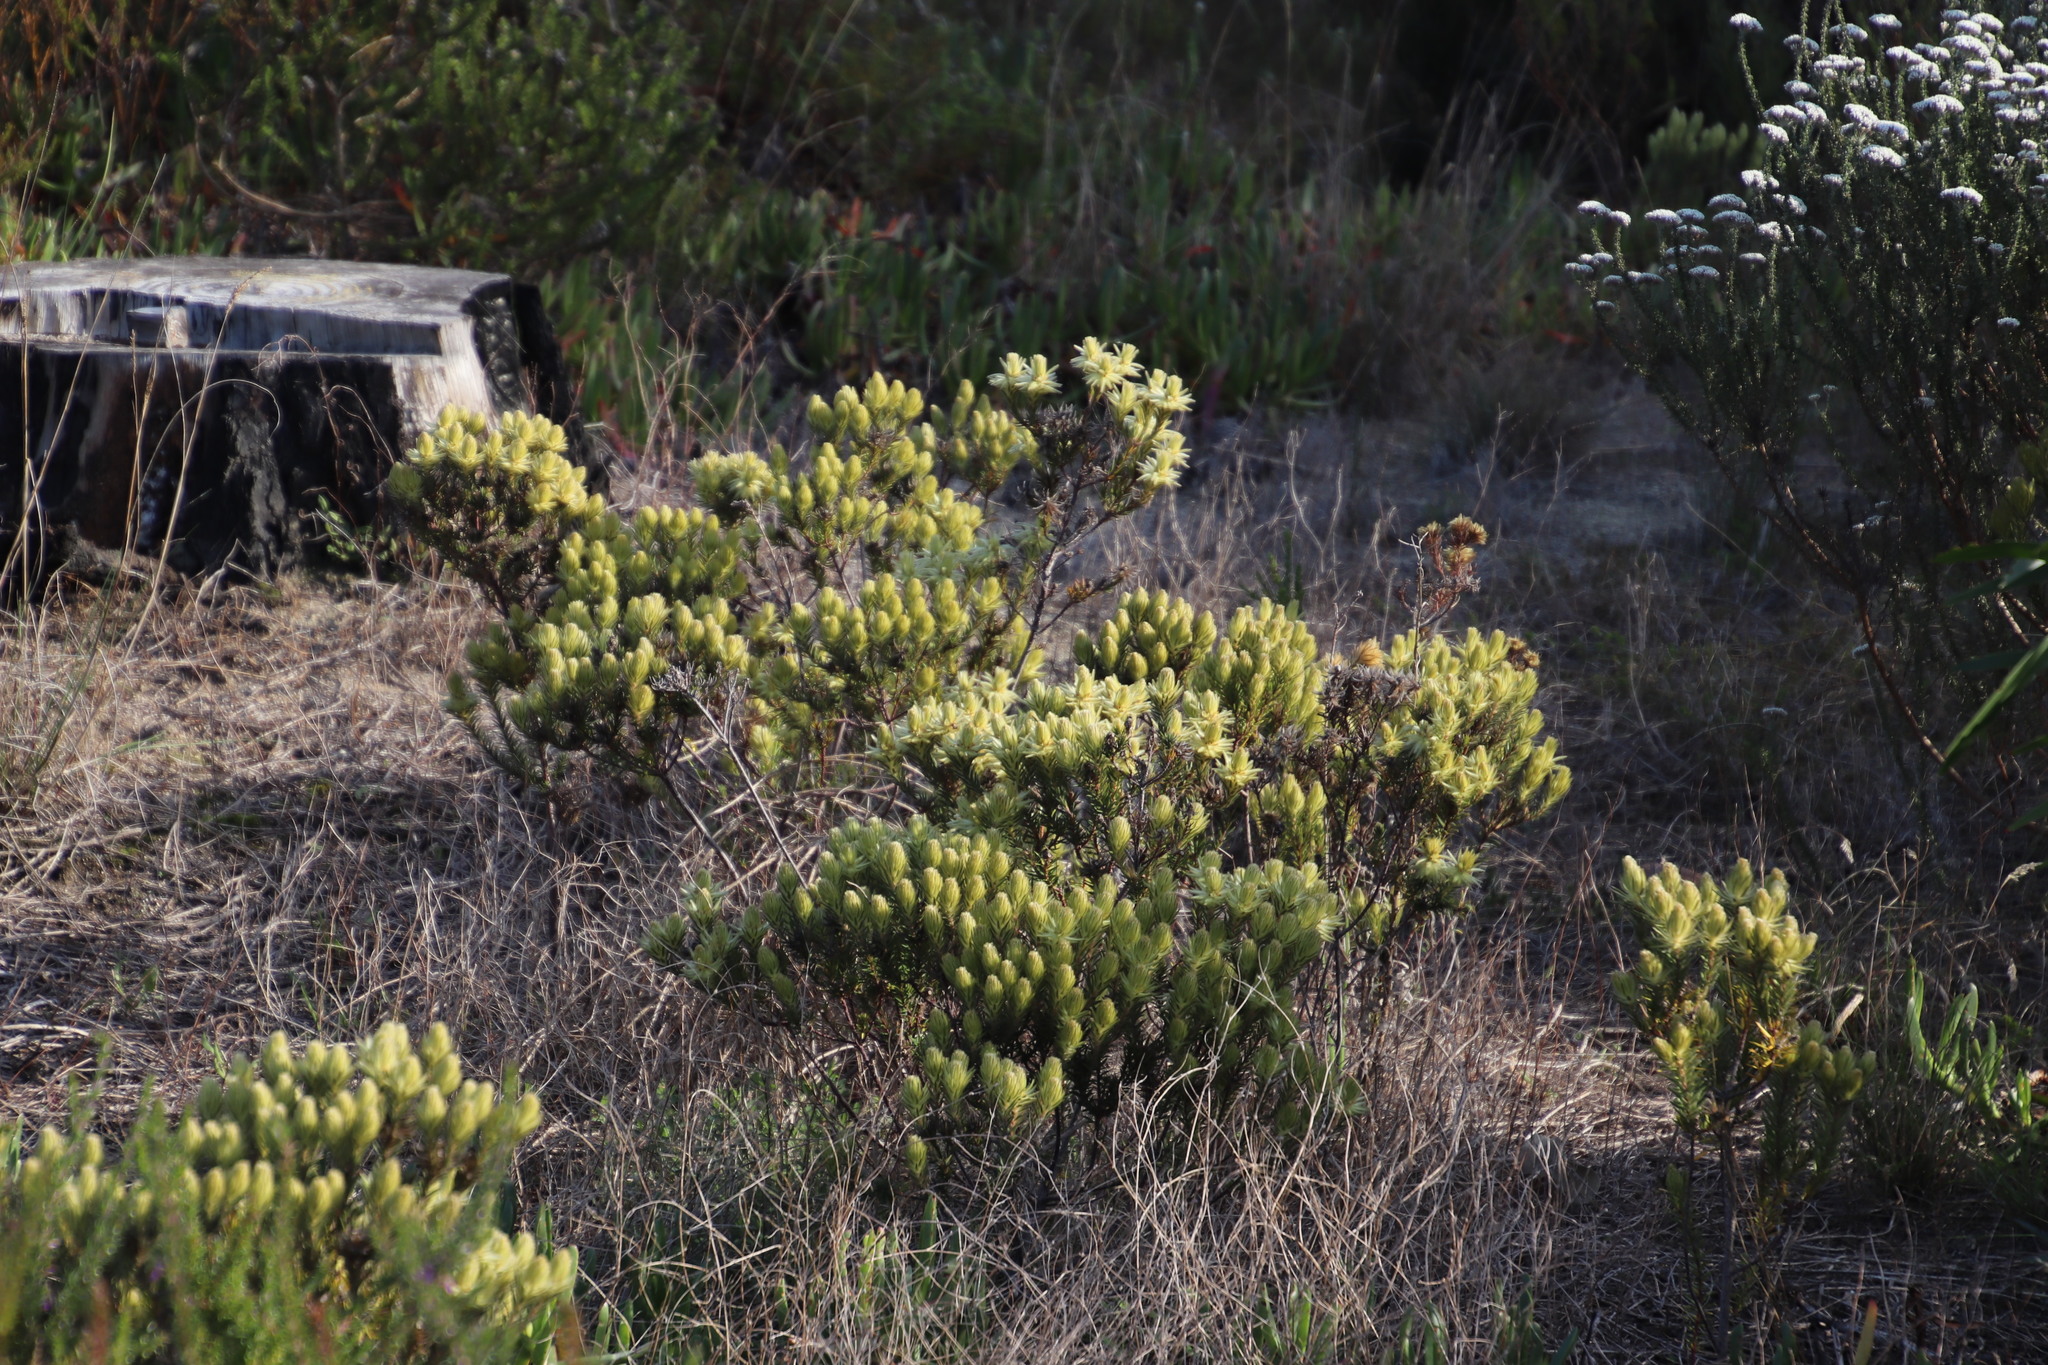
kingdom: Plantae
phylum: Tracheophyta
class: Magnoliopsida
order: Rosales
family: Rhamnaceae
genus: Phylica
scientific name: Phylica pubescens
